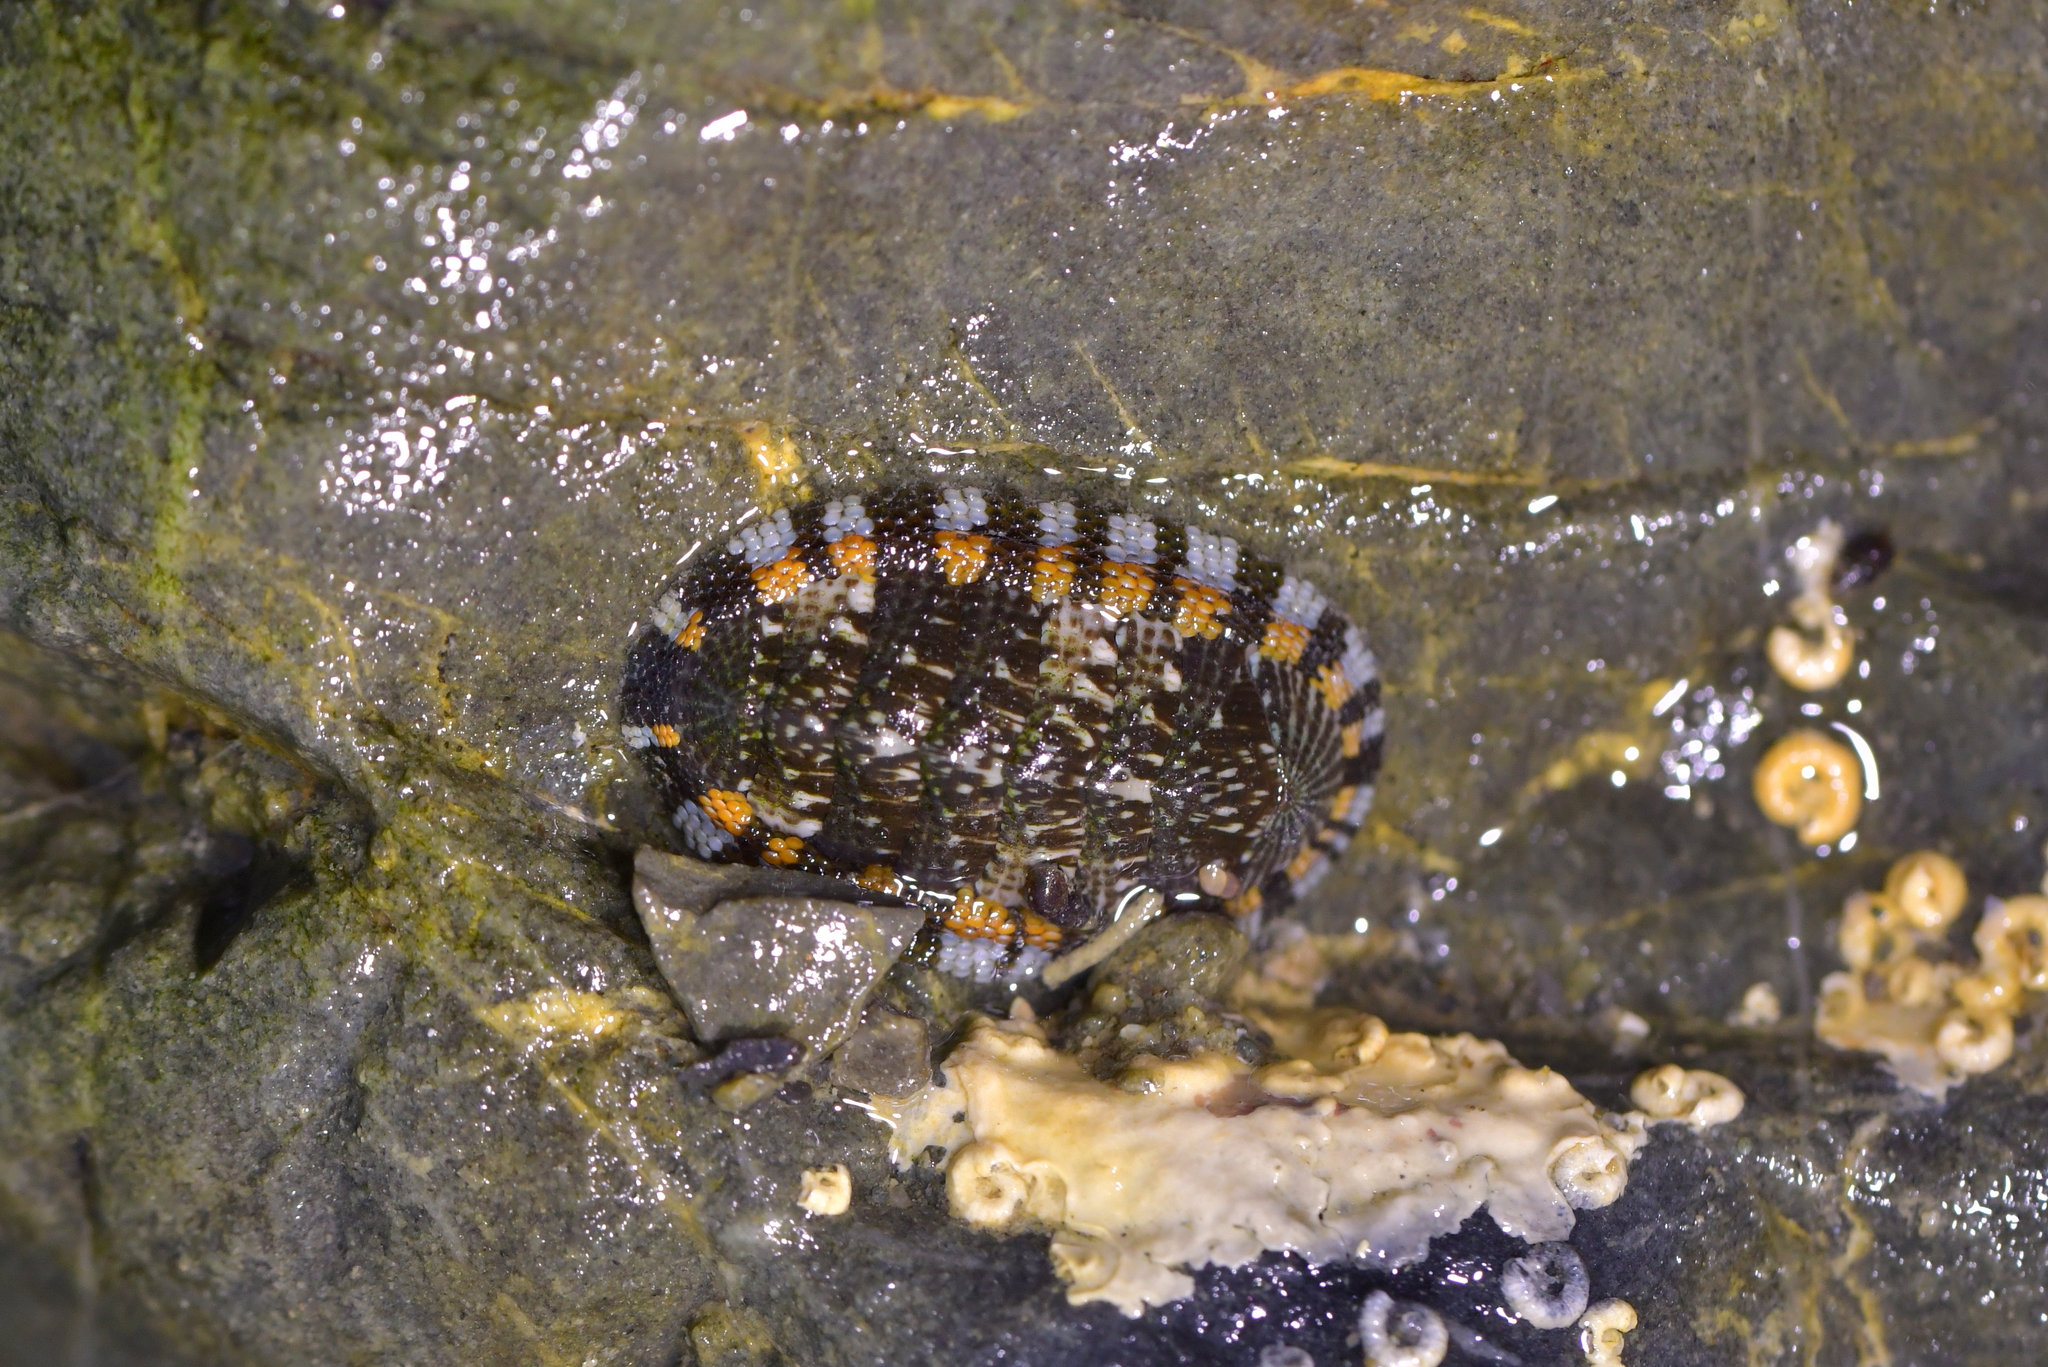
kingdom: Animalia
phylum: Mollusca
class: Polyplacophora
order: Chitonida
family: Chitonidae
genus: Sypharochiton
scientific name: Sypharochiton sinclairi
